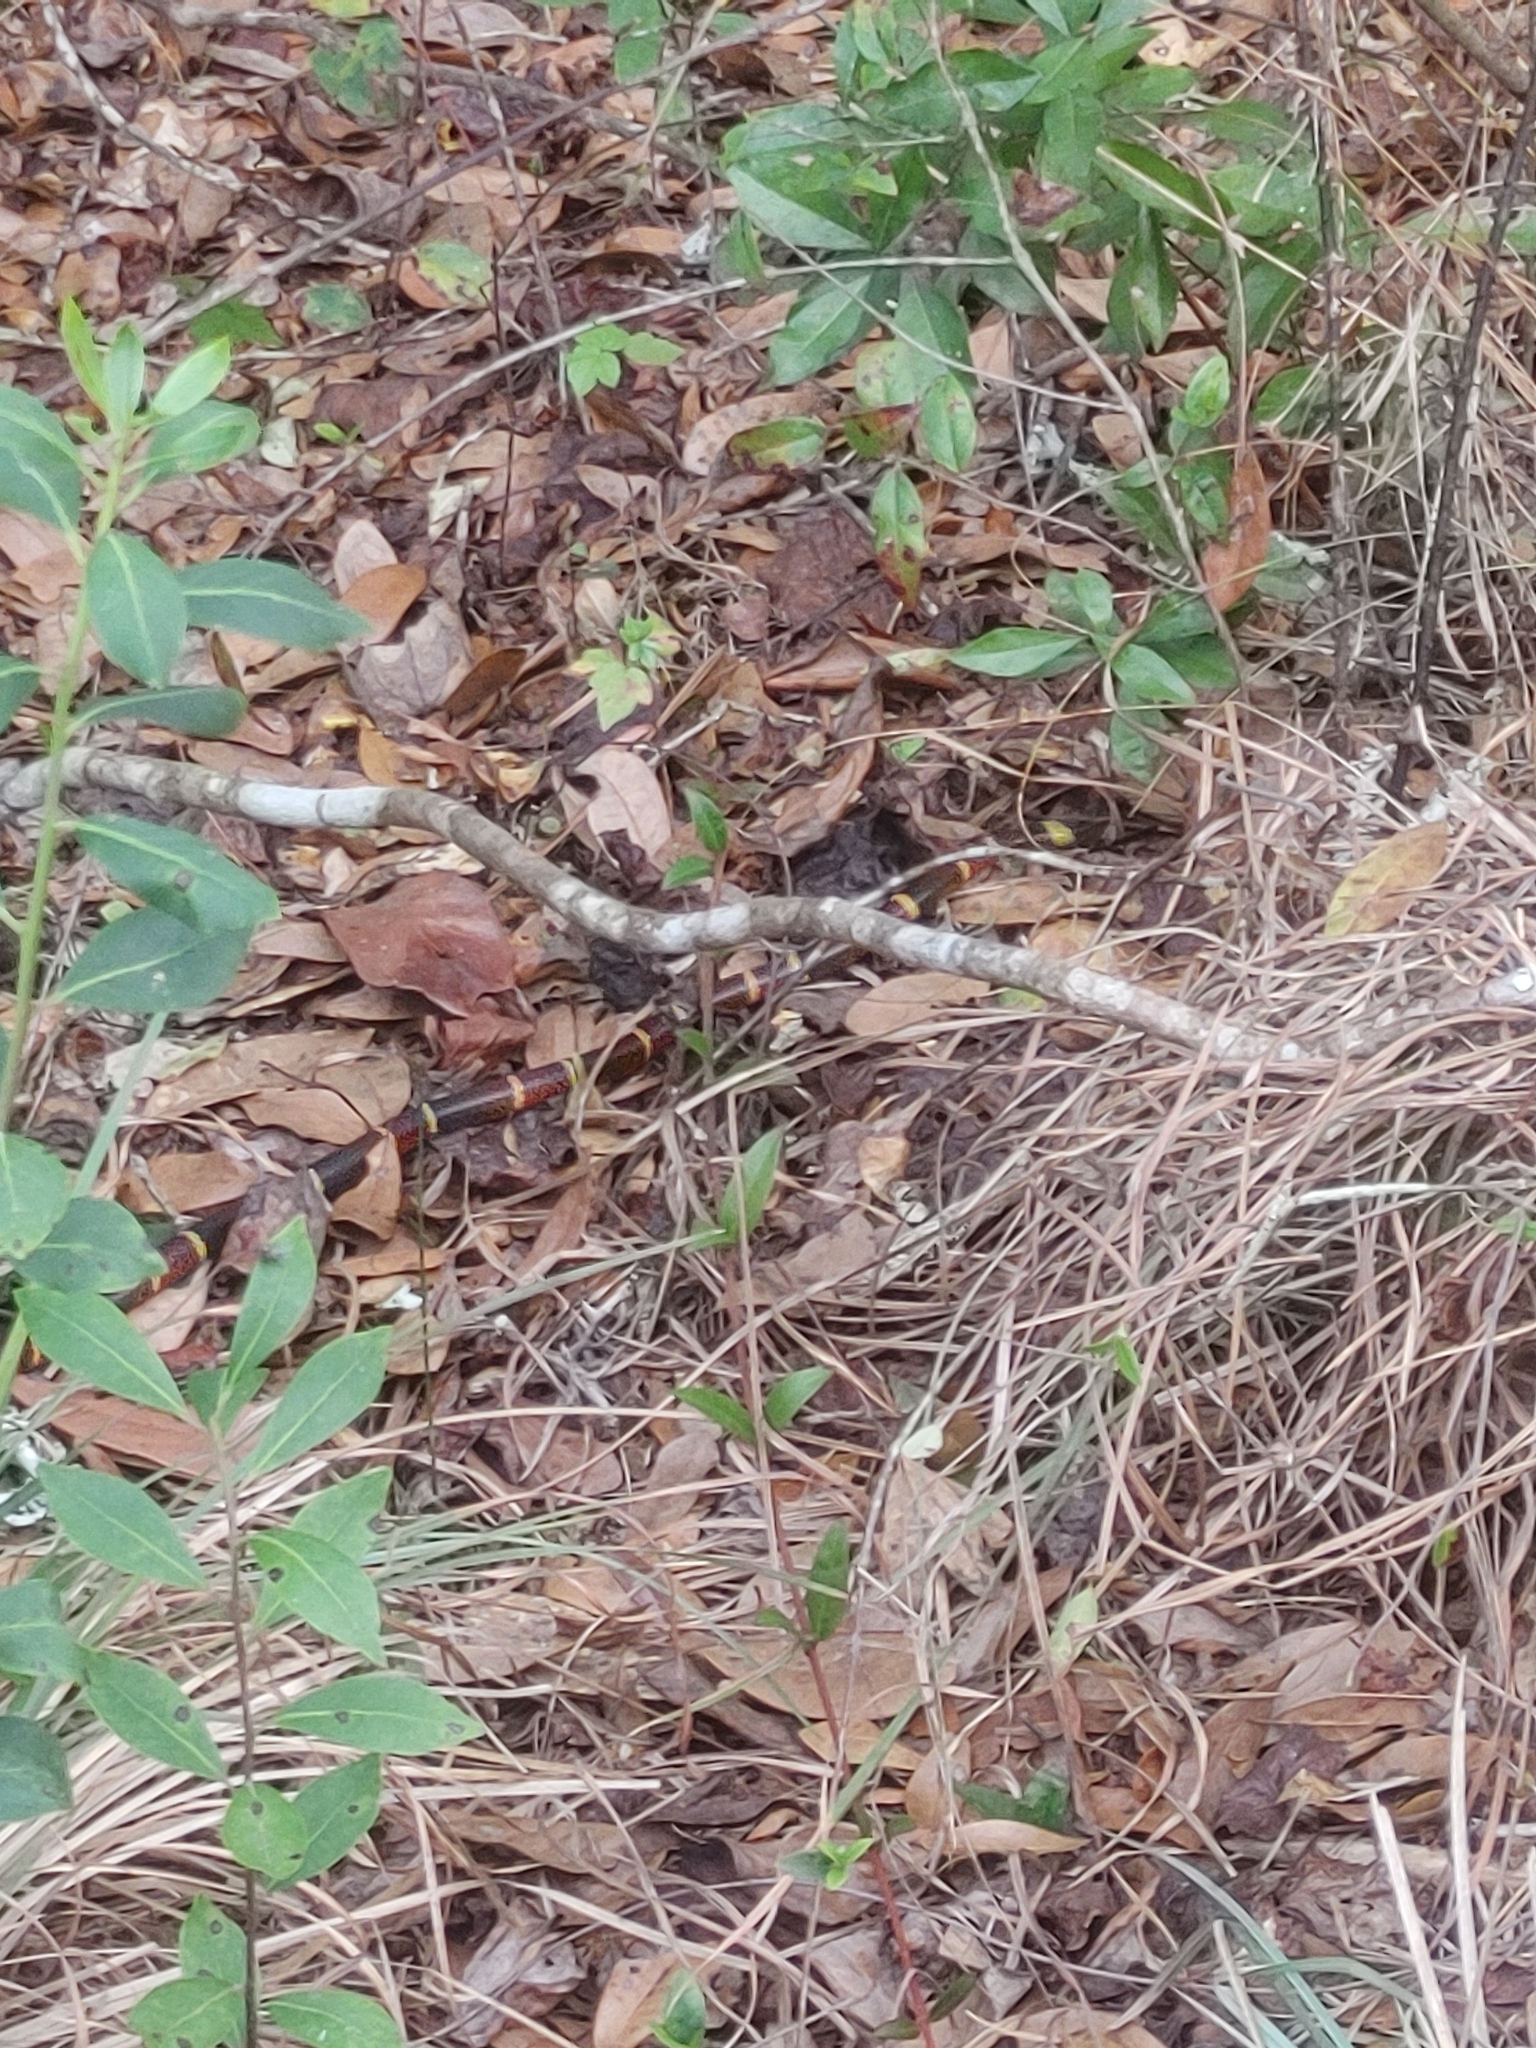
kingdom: Animalia
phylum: Chordata
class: Squamata
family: Elapidae
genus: Micrurus
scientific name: Micrurus fulvius
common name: Eastern coral snake
